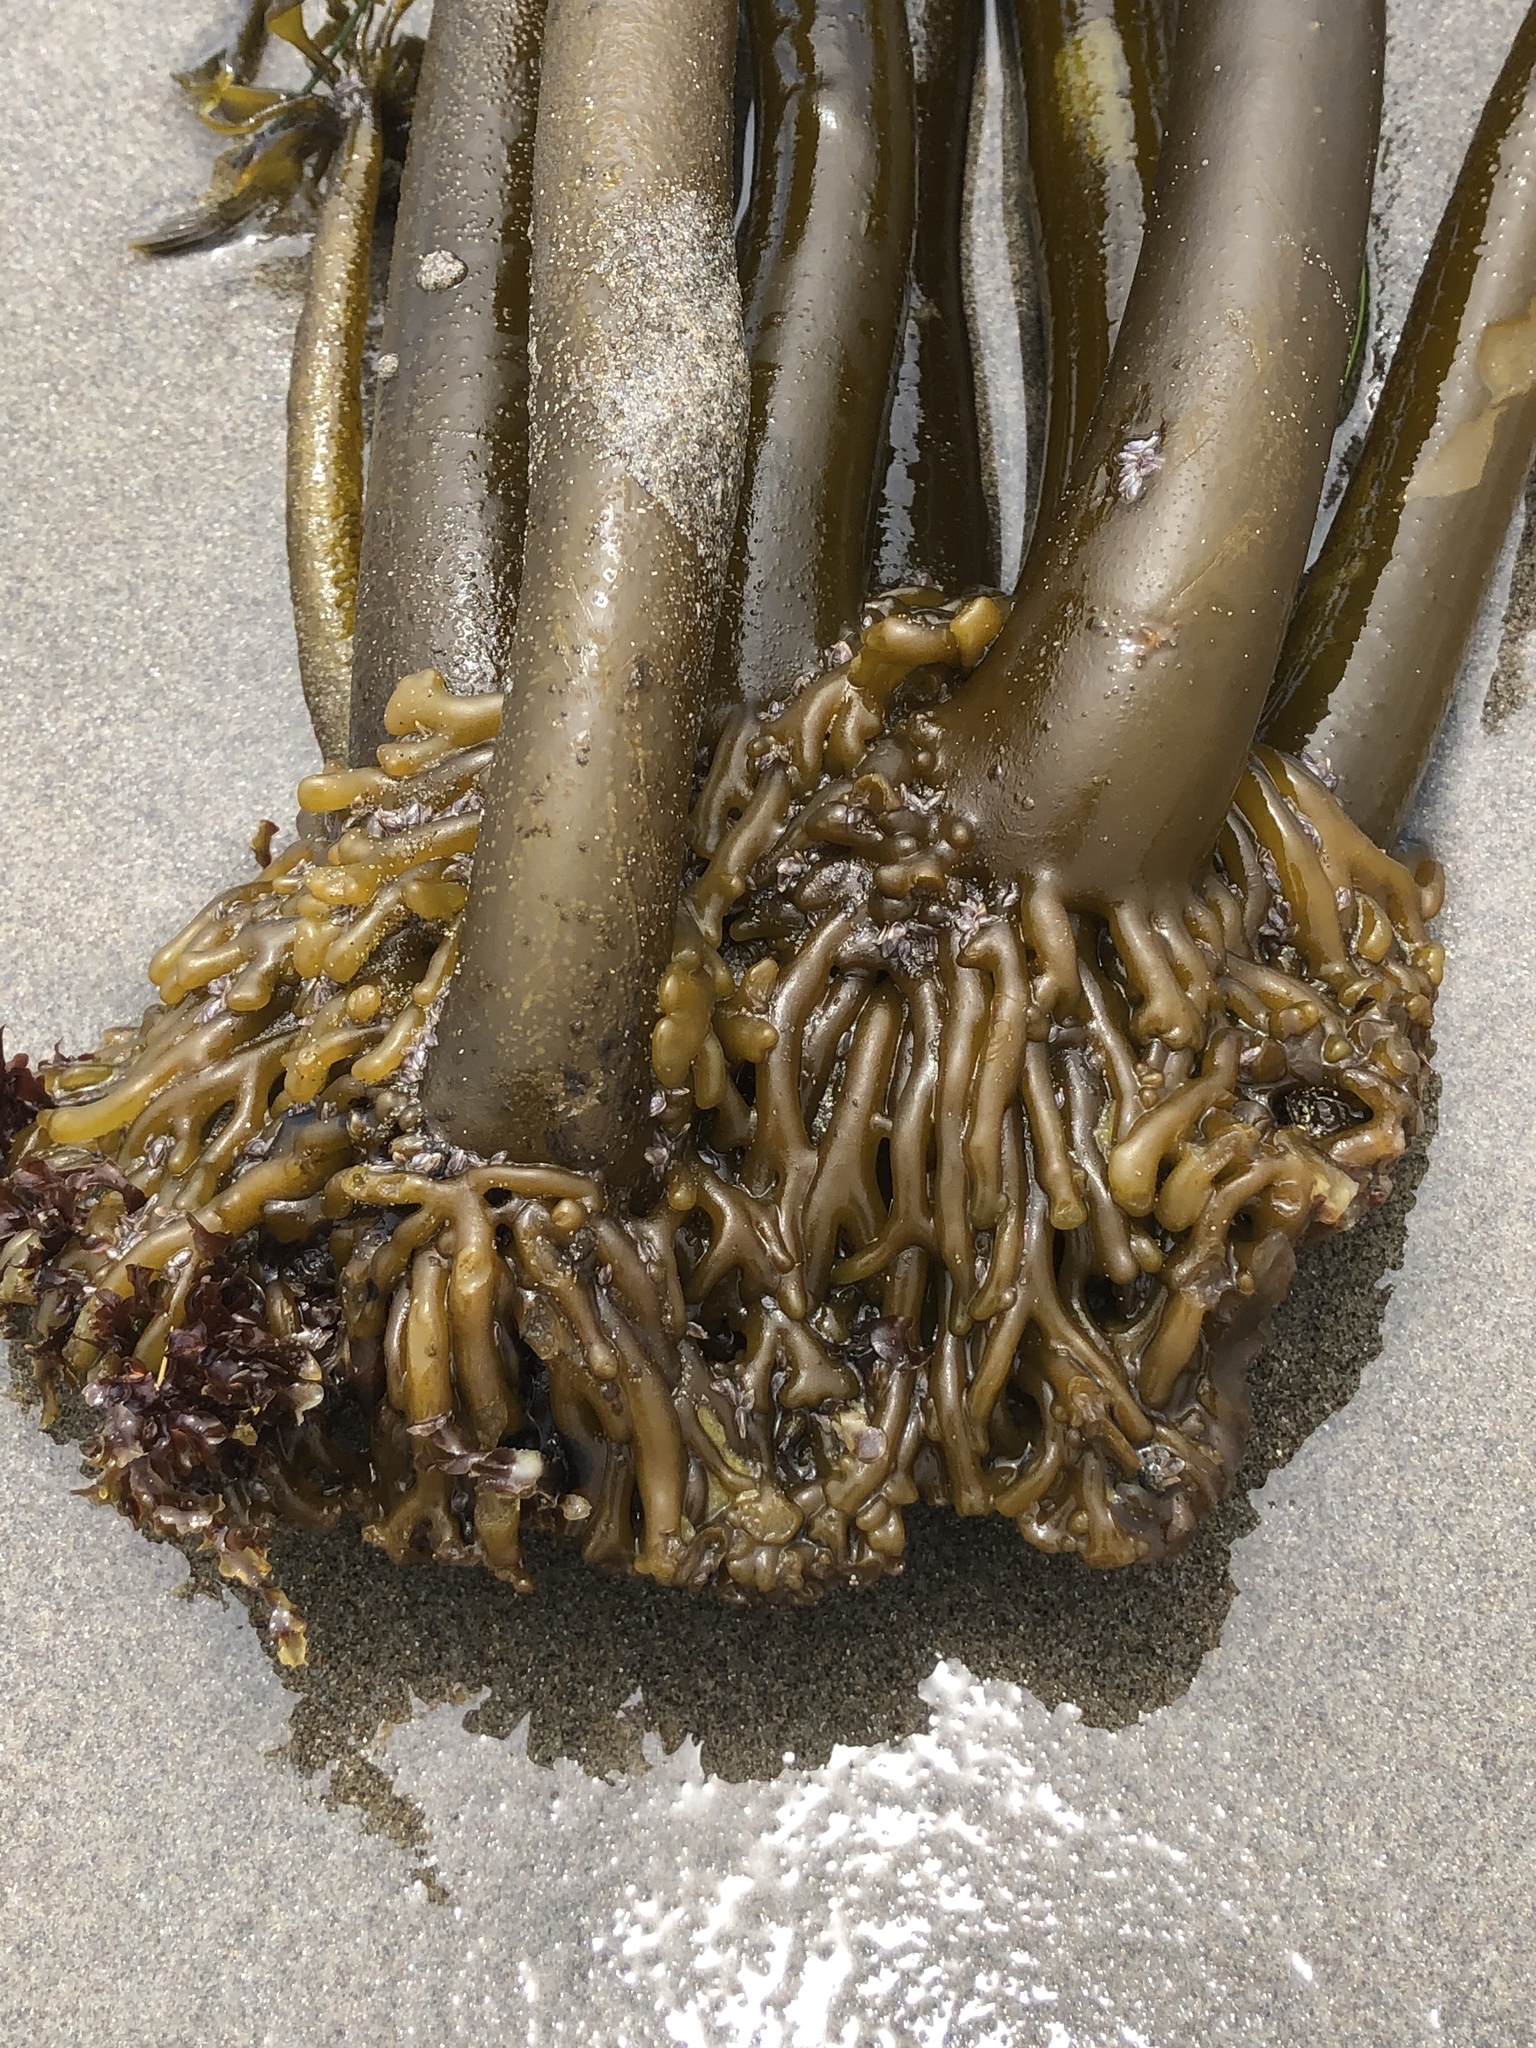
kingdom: Chromista
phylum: Ochrophyta
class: Phaeophyceae
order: Laminariales
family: Laminariaceae
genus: Postelsia
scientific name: Postelsia palmiformis
